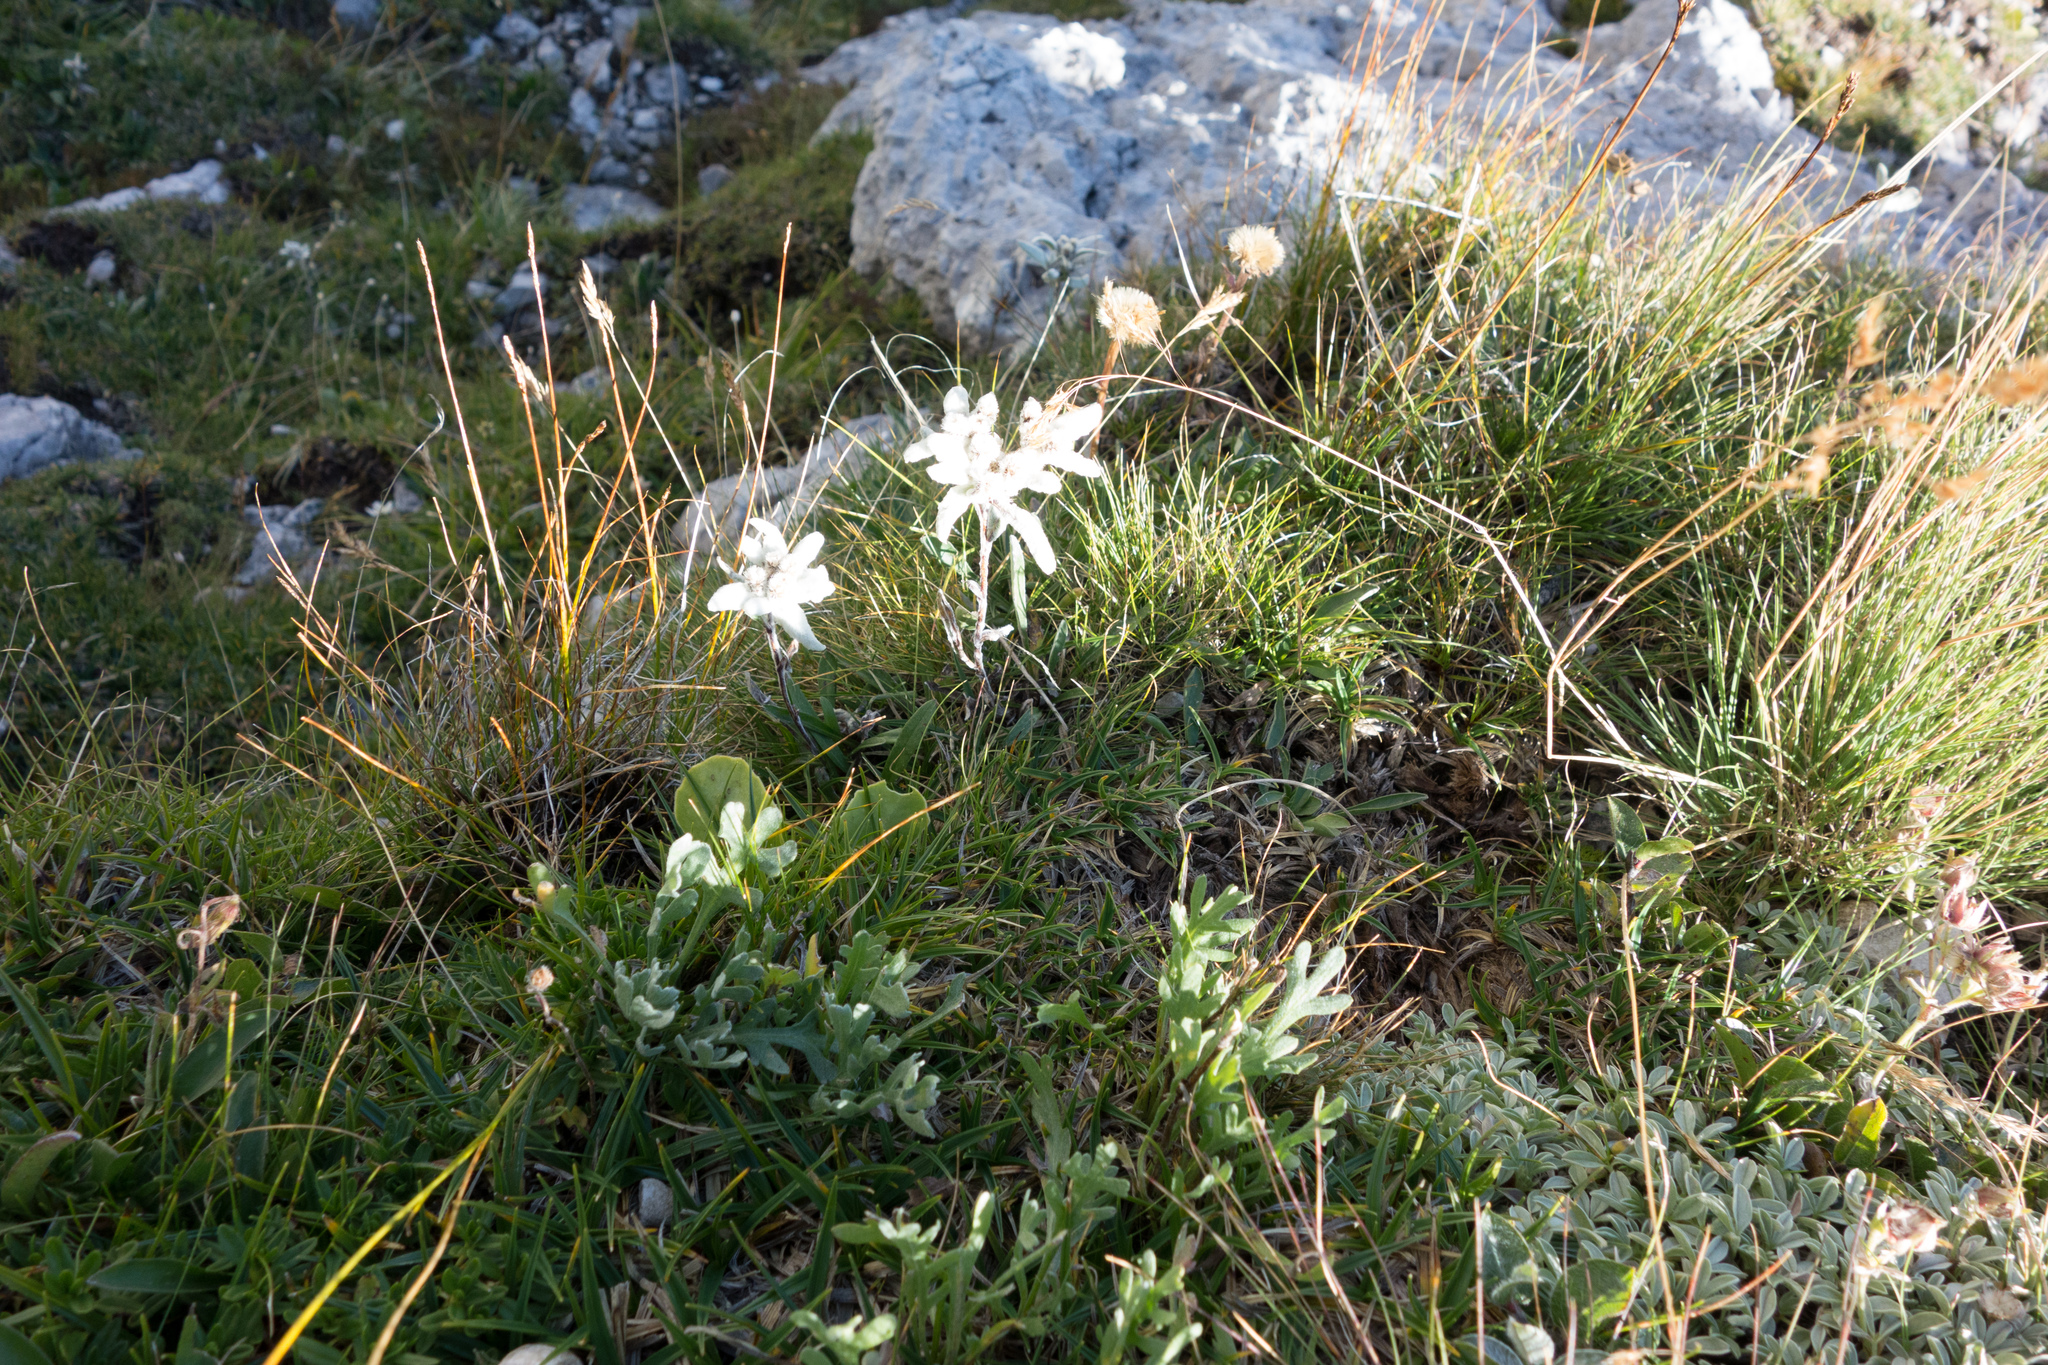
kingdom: Plantae
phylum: Tracheophyta
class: Magnoliopsida
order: Asterales
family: Asteraceae
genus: Leontopodium
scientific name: Leontopodium nivale
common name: Edelweiss
